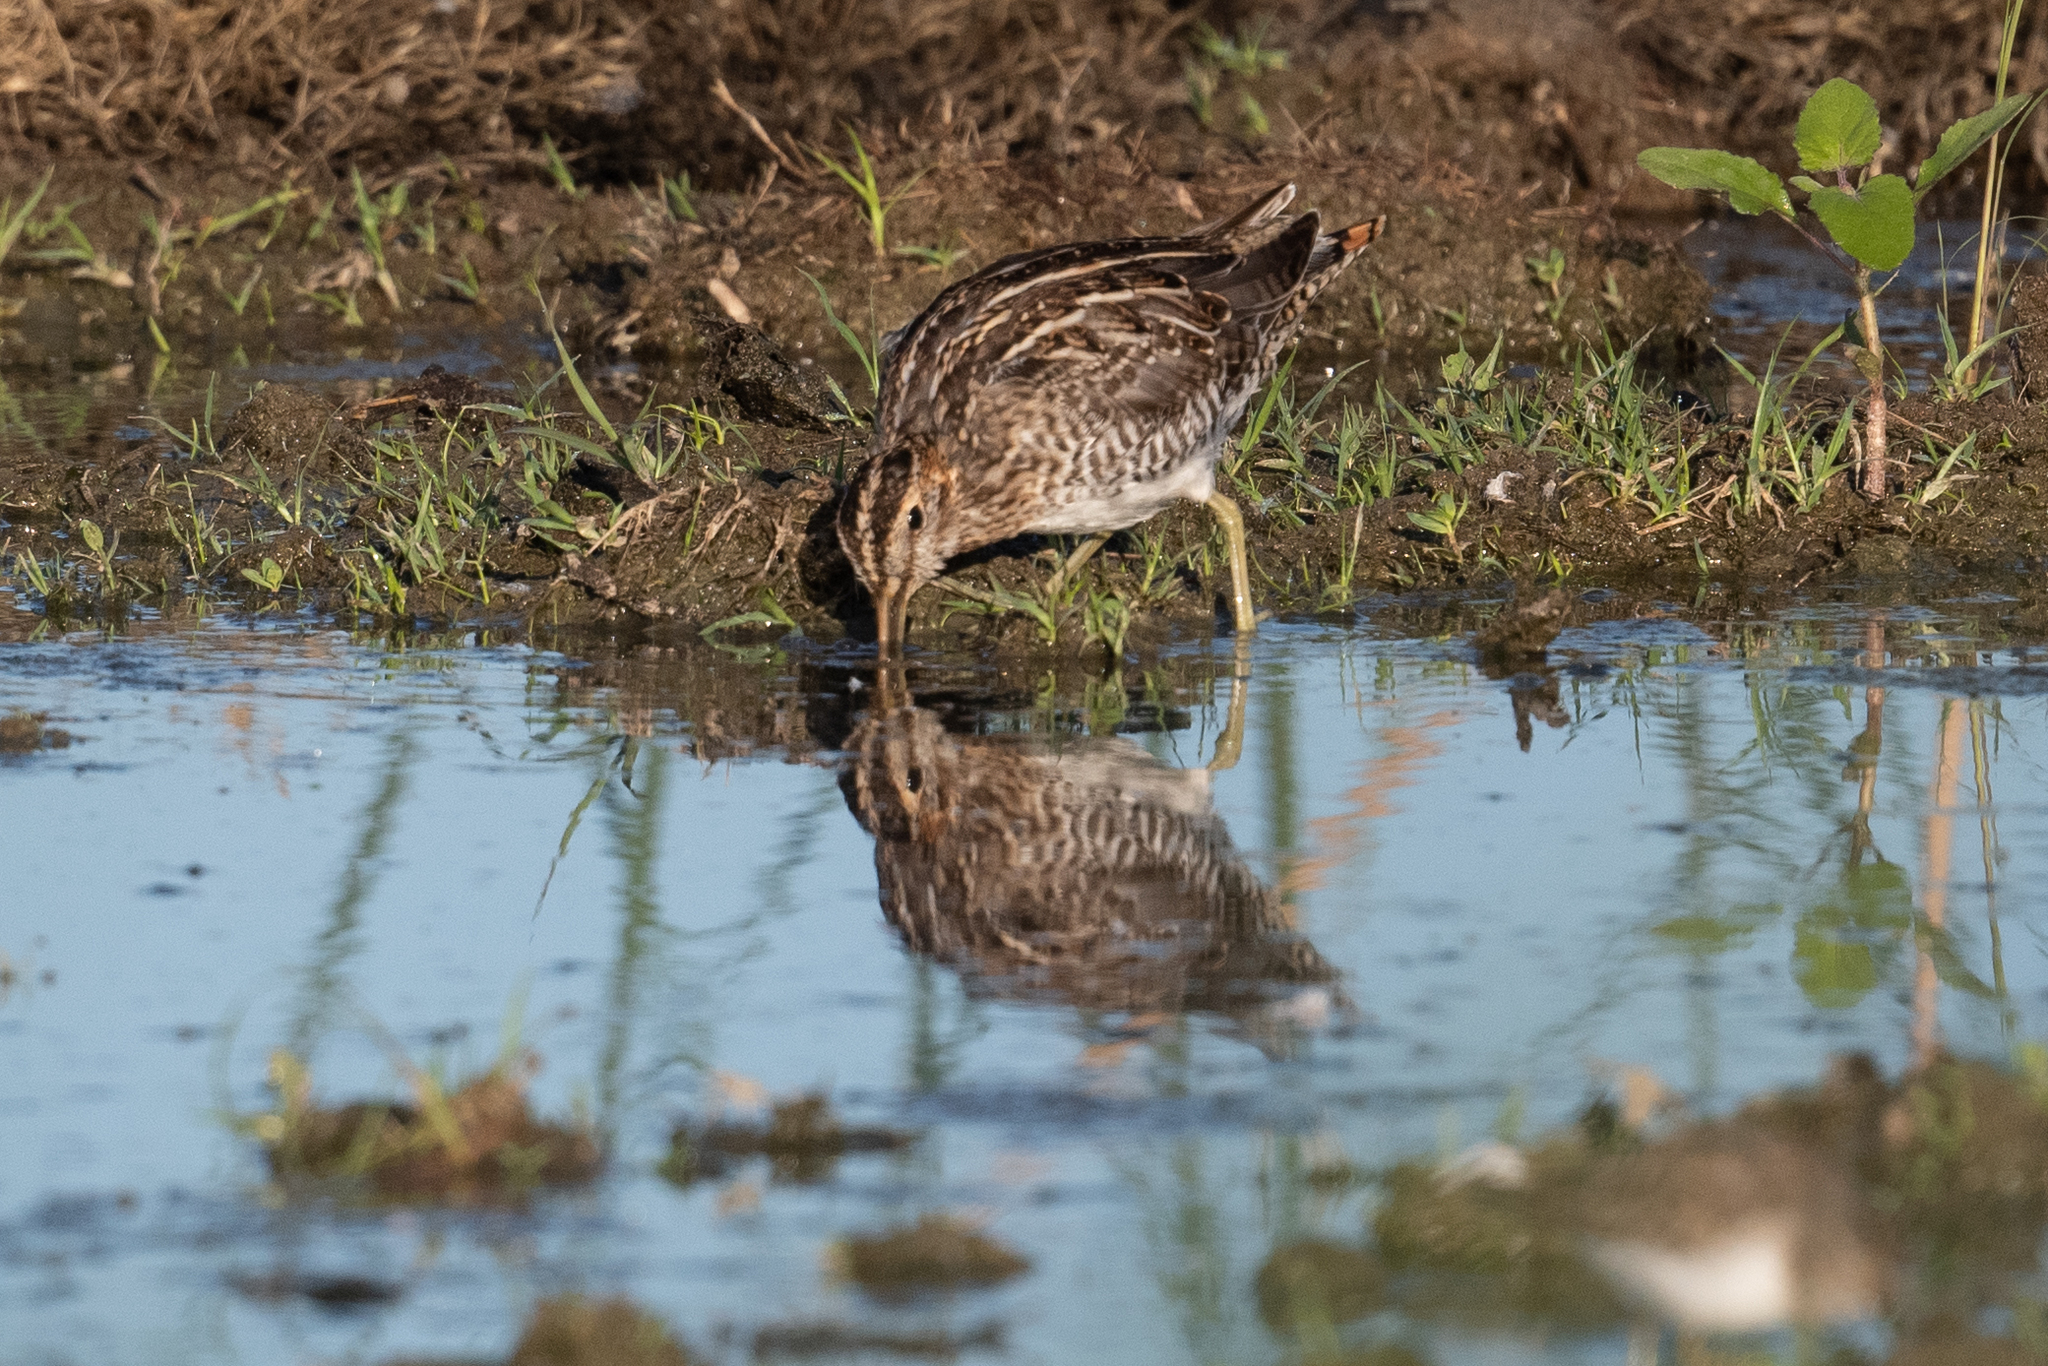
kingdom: Animalia
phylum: Chordata
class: Aves
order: Charadriiformes
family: Scolopacidae
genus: Gallinago
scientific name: Gallinago delicata
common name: Wilson's snipe
